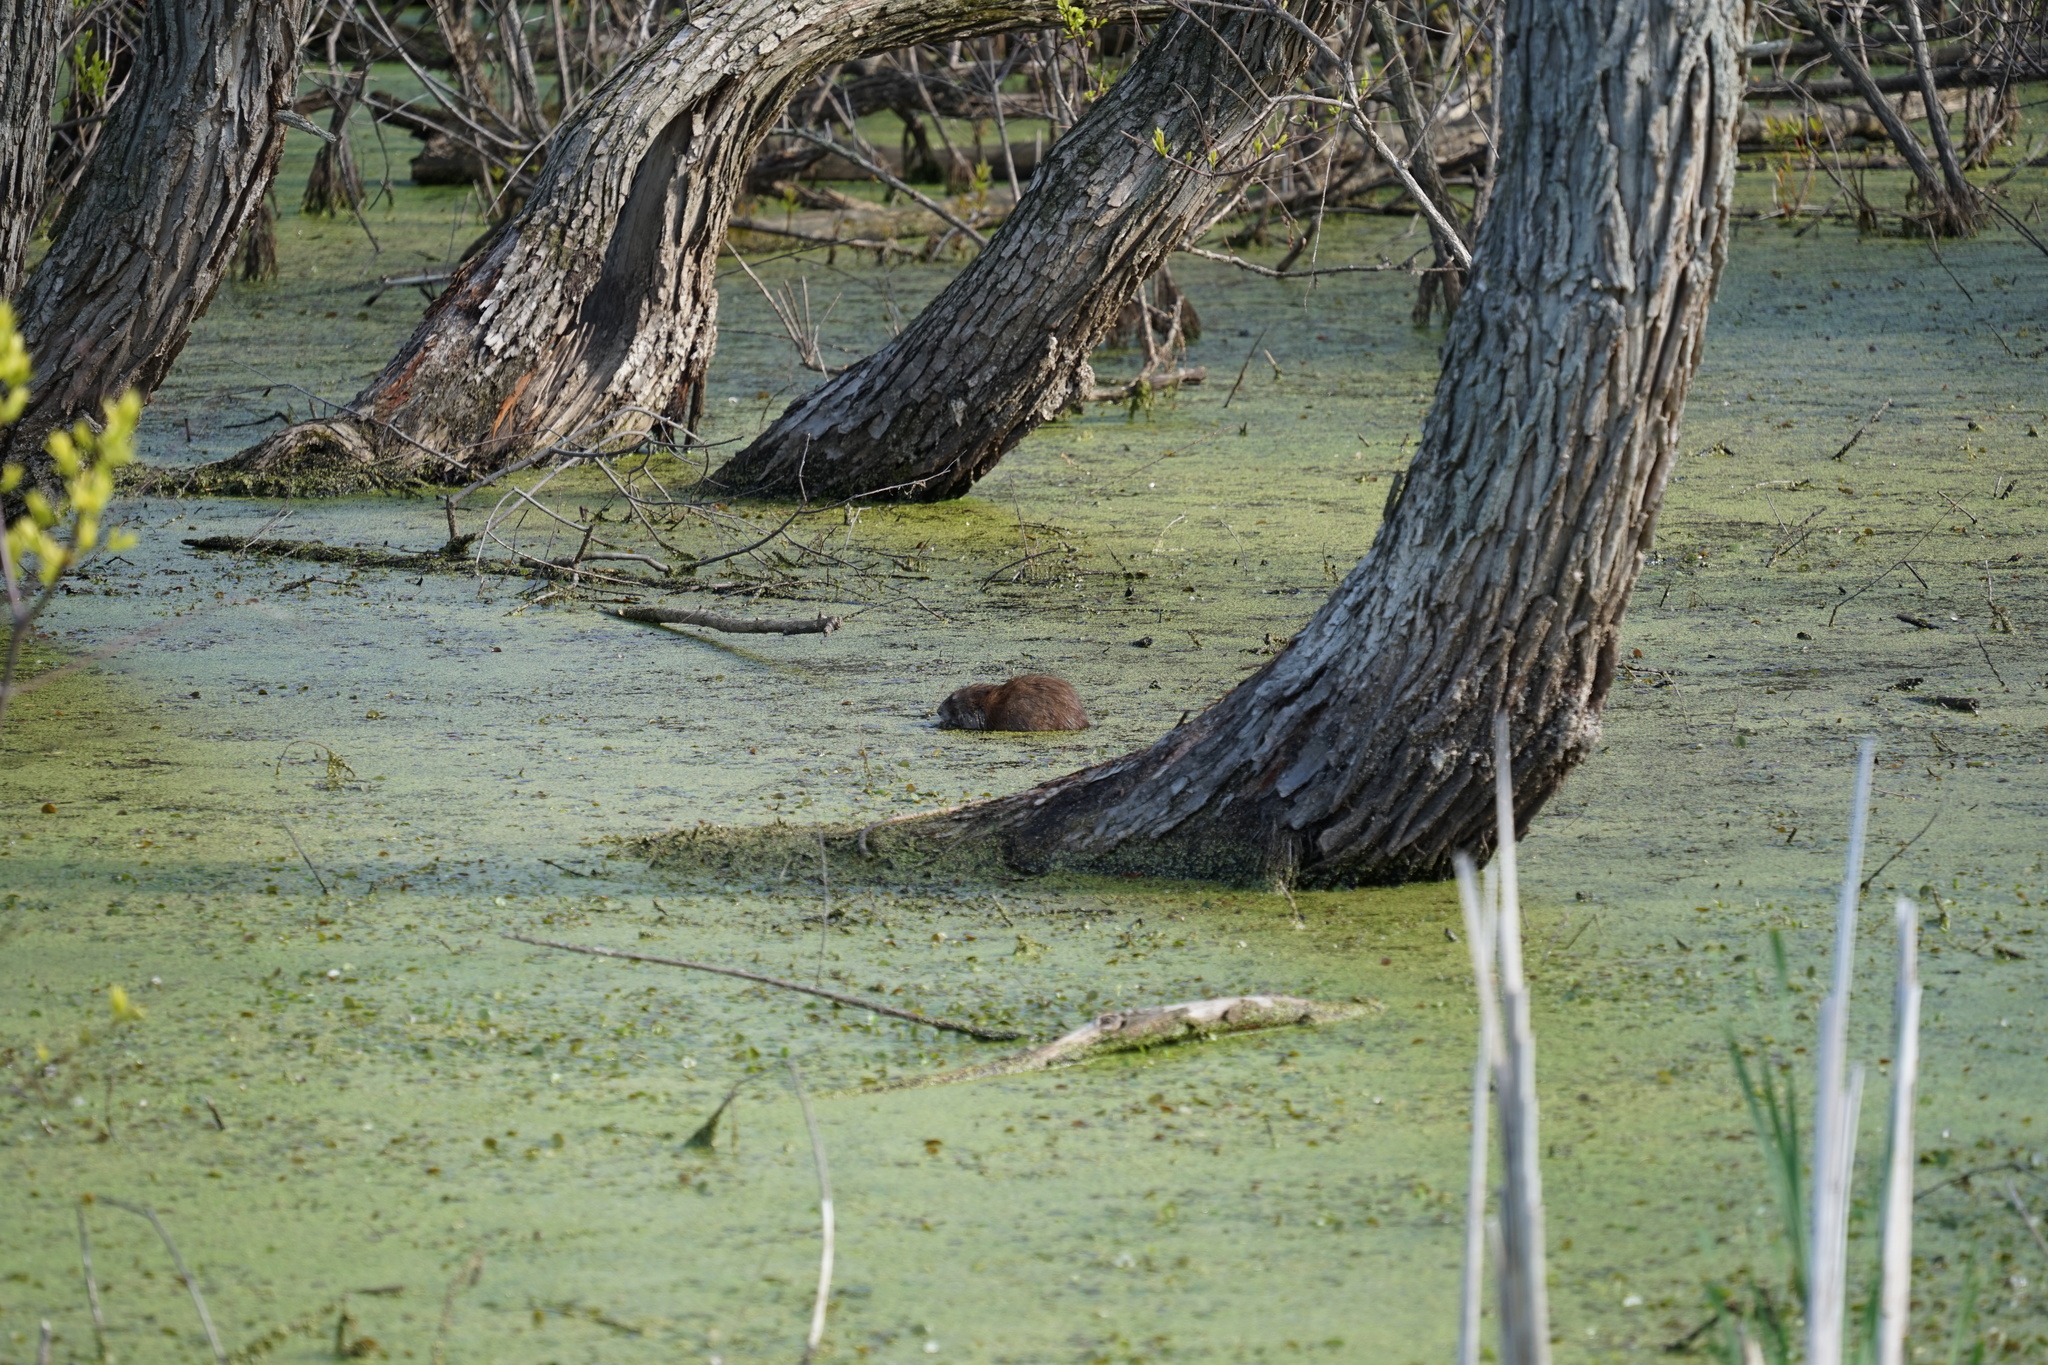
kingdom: Animalia
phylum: Chordata
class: Mammalia
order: Rodentia
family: Cricetidae
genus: Ondatra
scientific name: Ondatra zibethicus
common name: Muskrat
